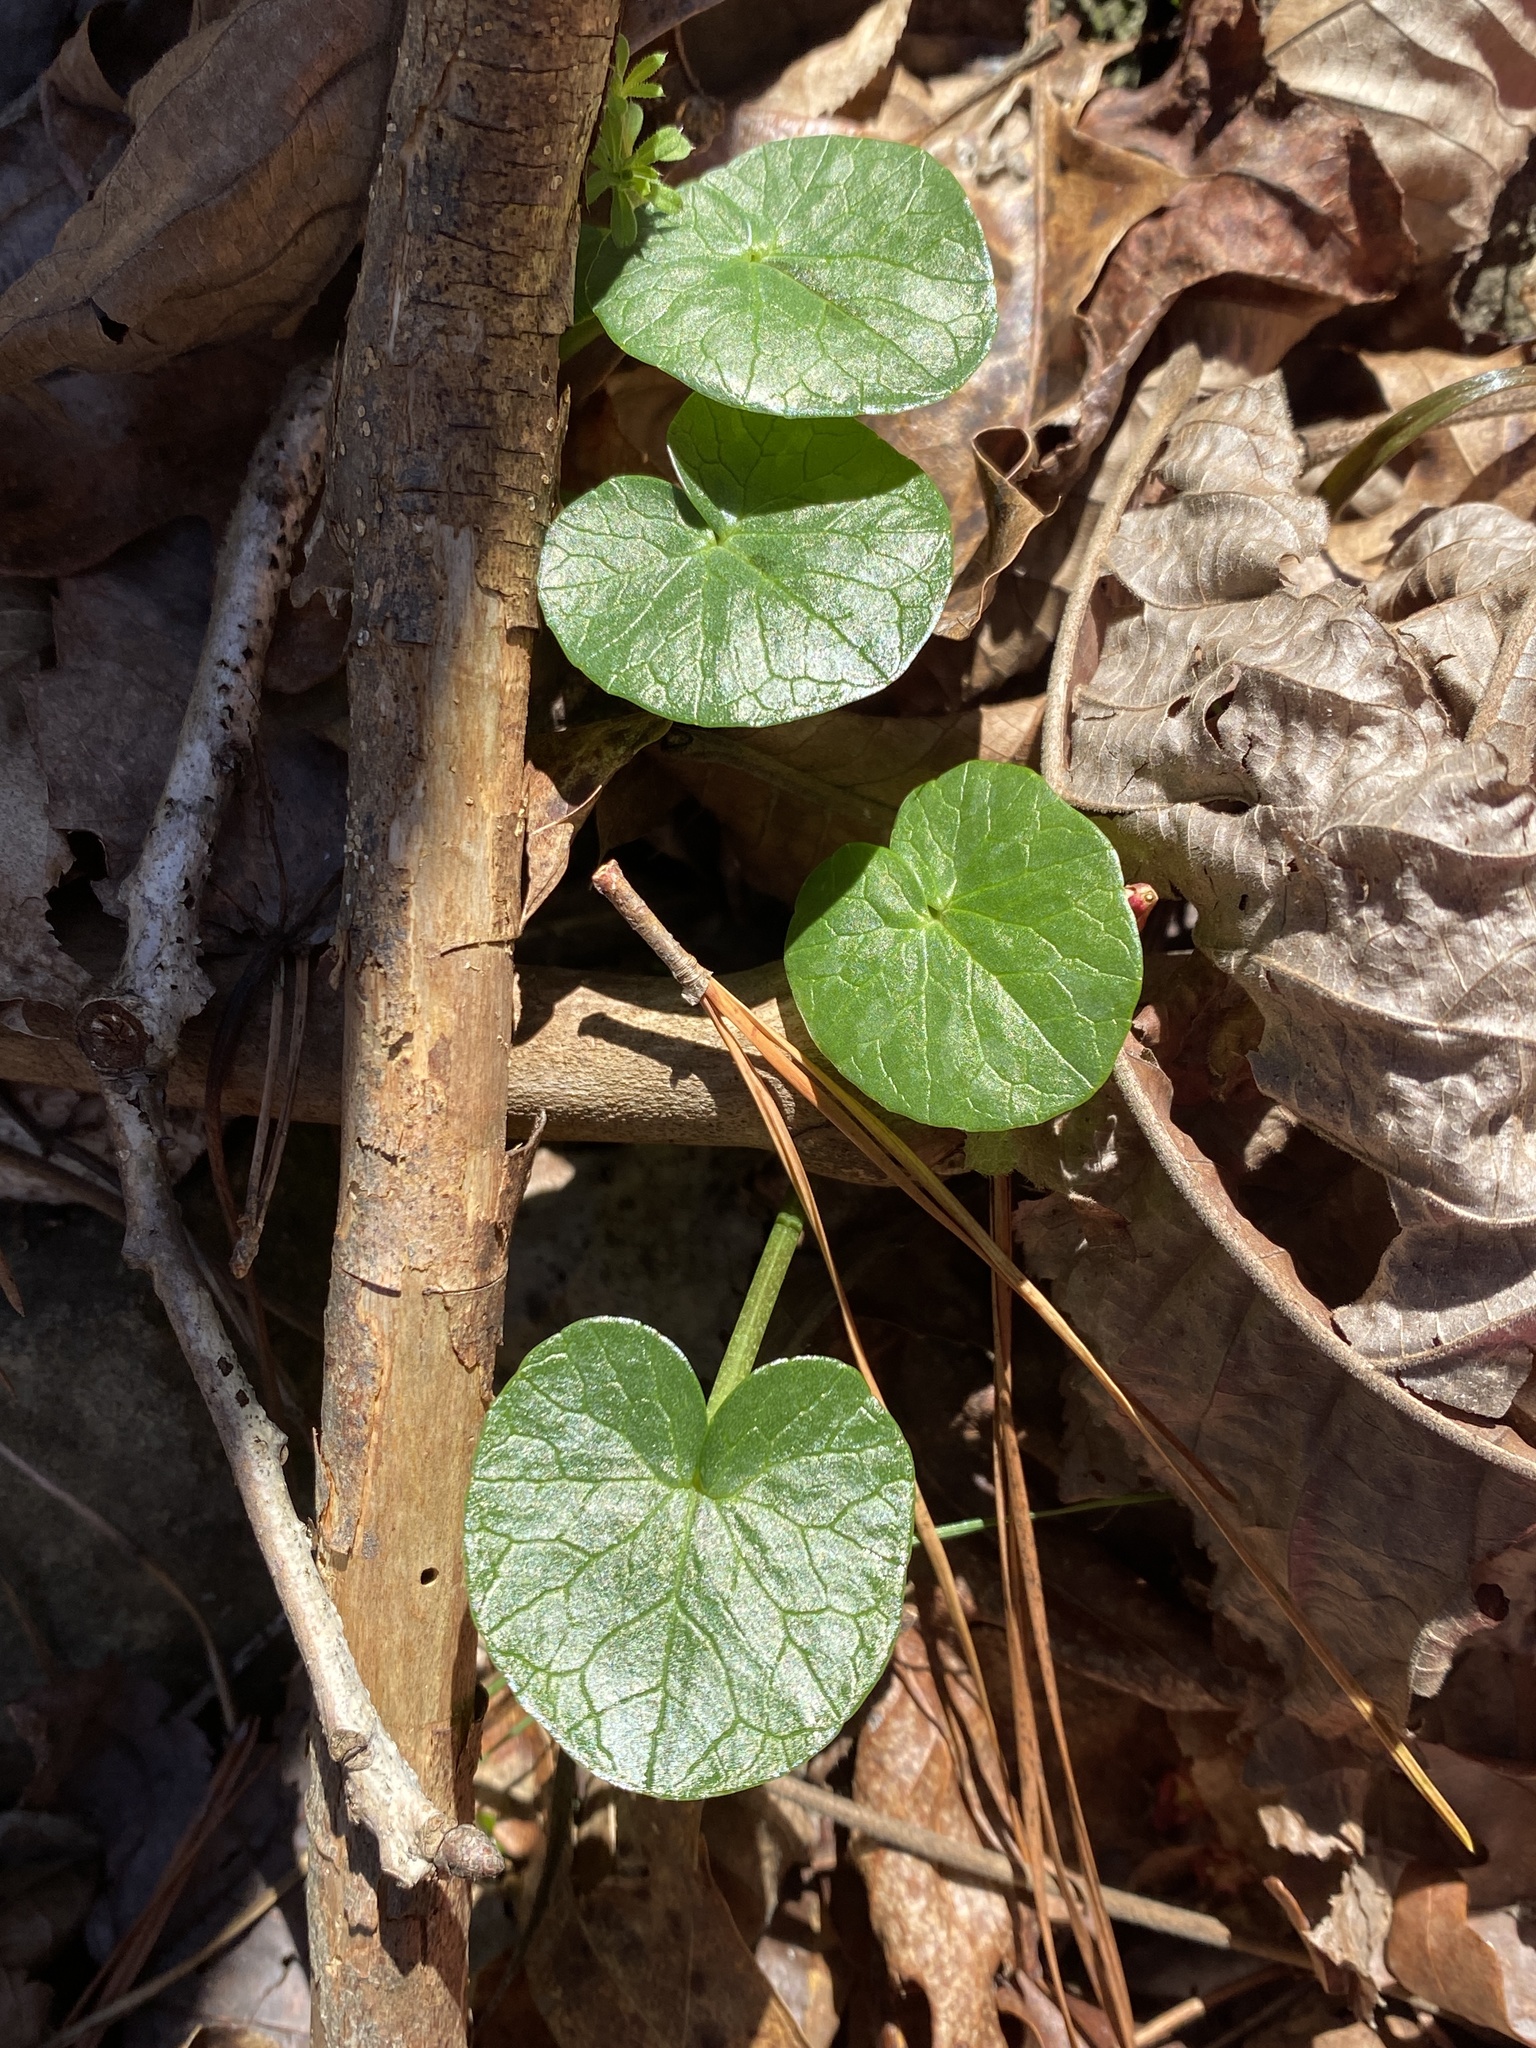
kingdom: Plantae
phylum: Tracheophyta
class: Magnoliopsida
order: Ranunculales
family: Ranunculaceae
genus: Ficaria
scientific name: Ficaria verna
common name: Lesser celandine
